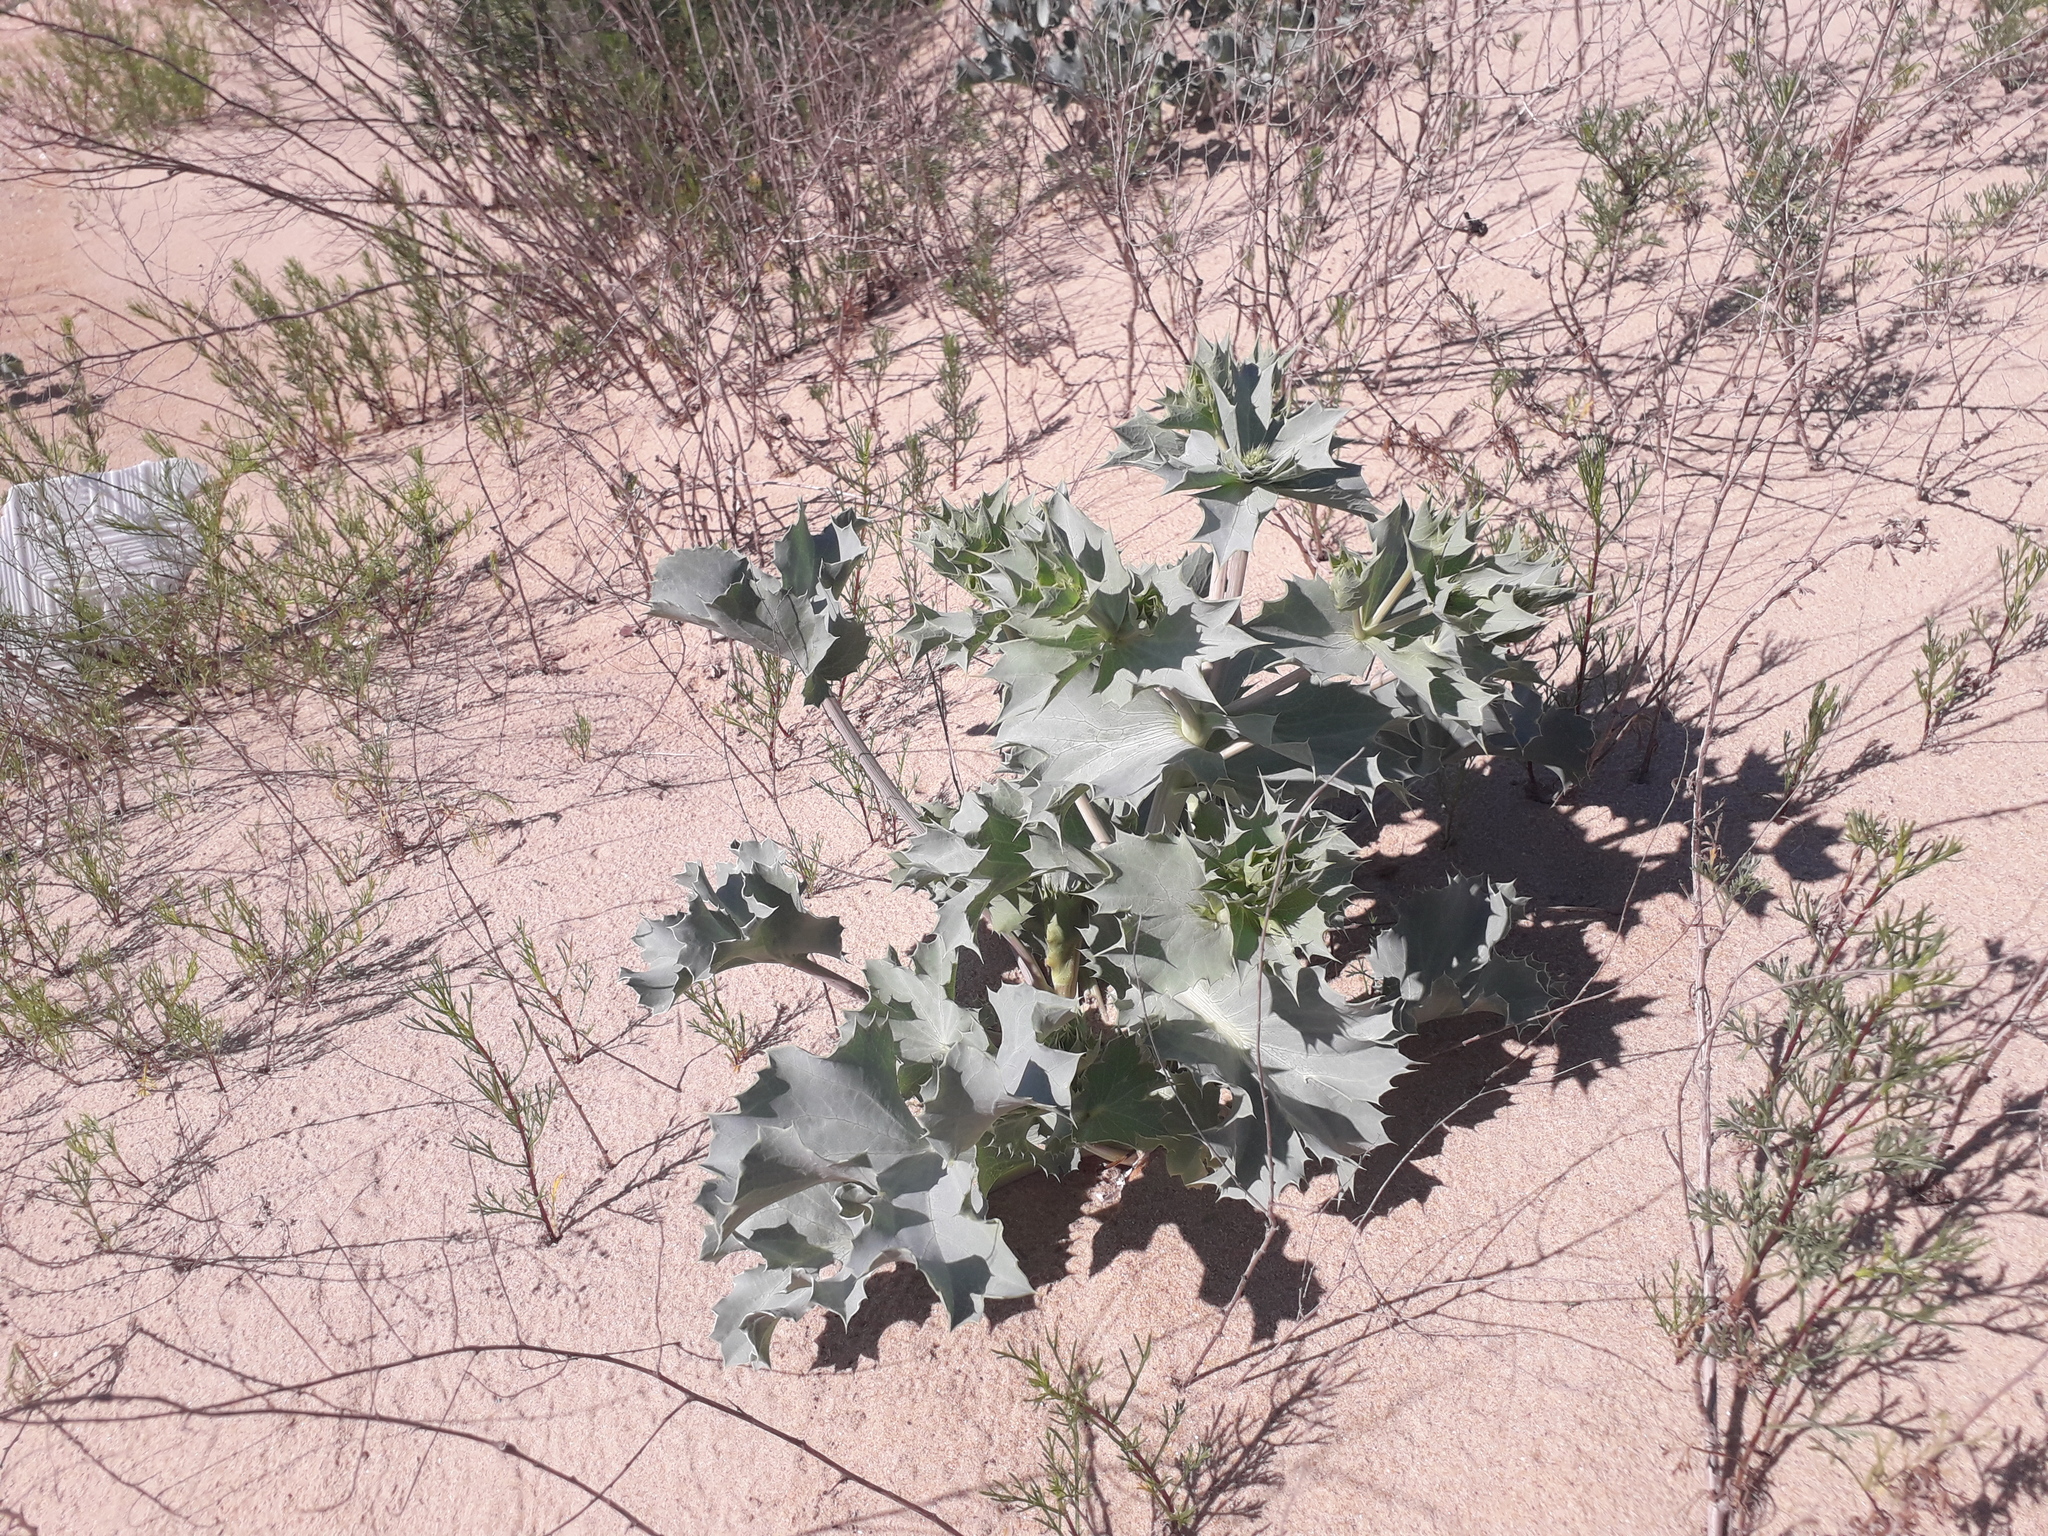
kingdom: Plantae
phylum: Tracheophyta
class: Magnoliopsida
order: Apiales
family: Apiaceae
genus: Eryngium
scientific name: Eryngium maritimum
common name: Sea-holly
